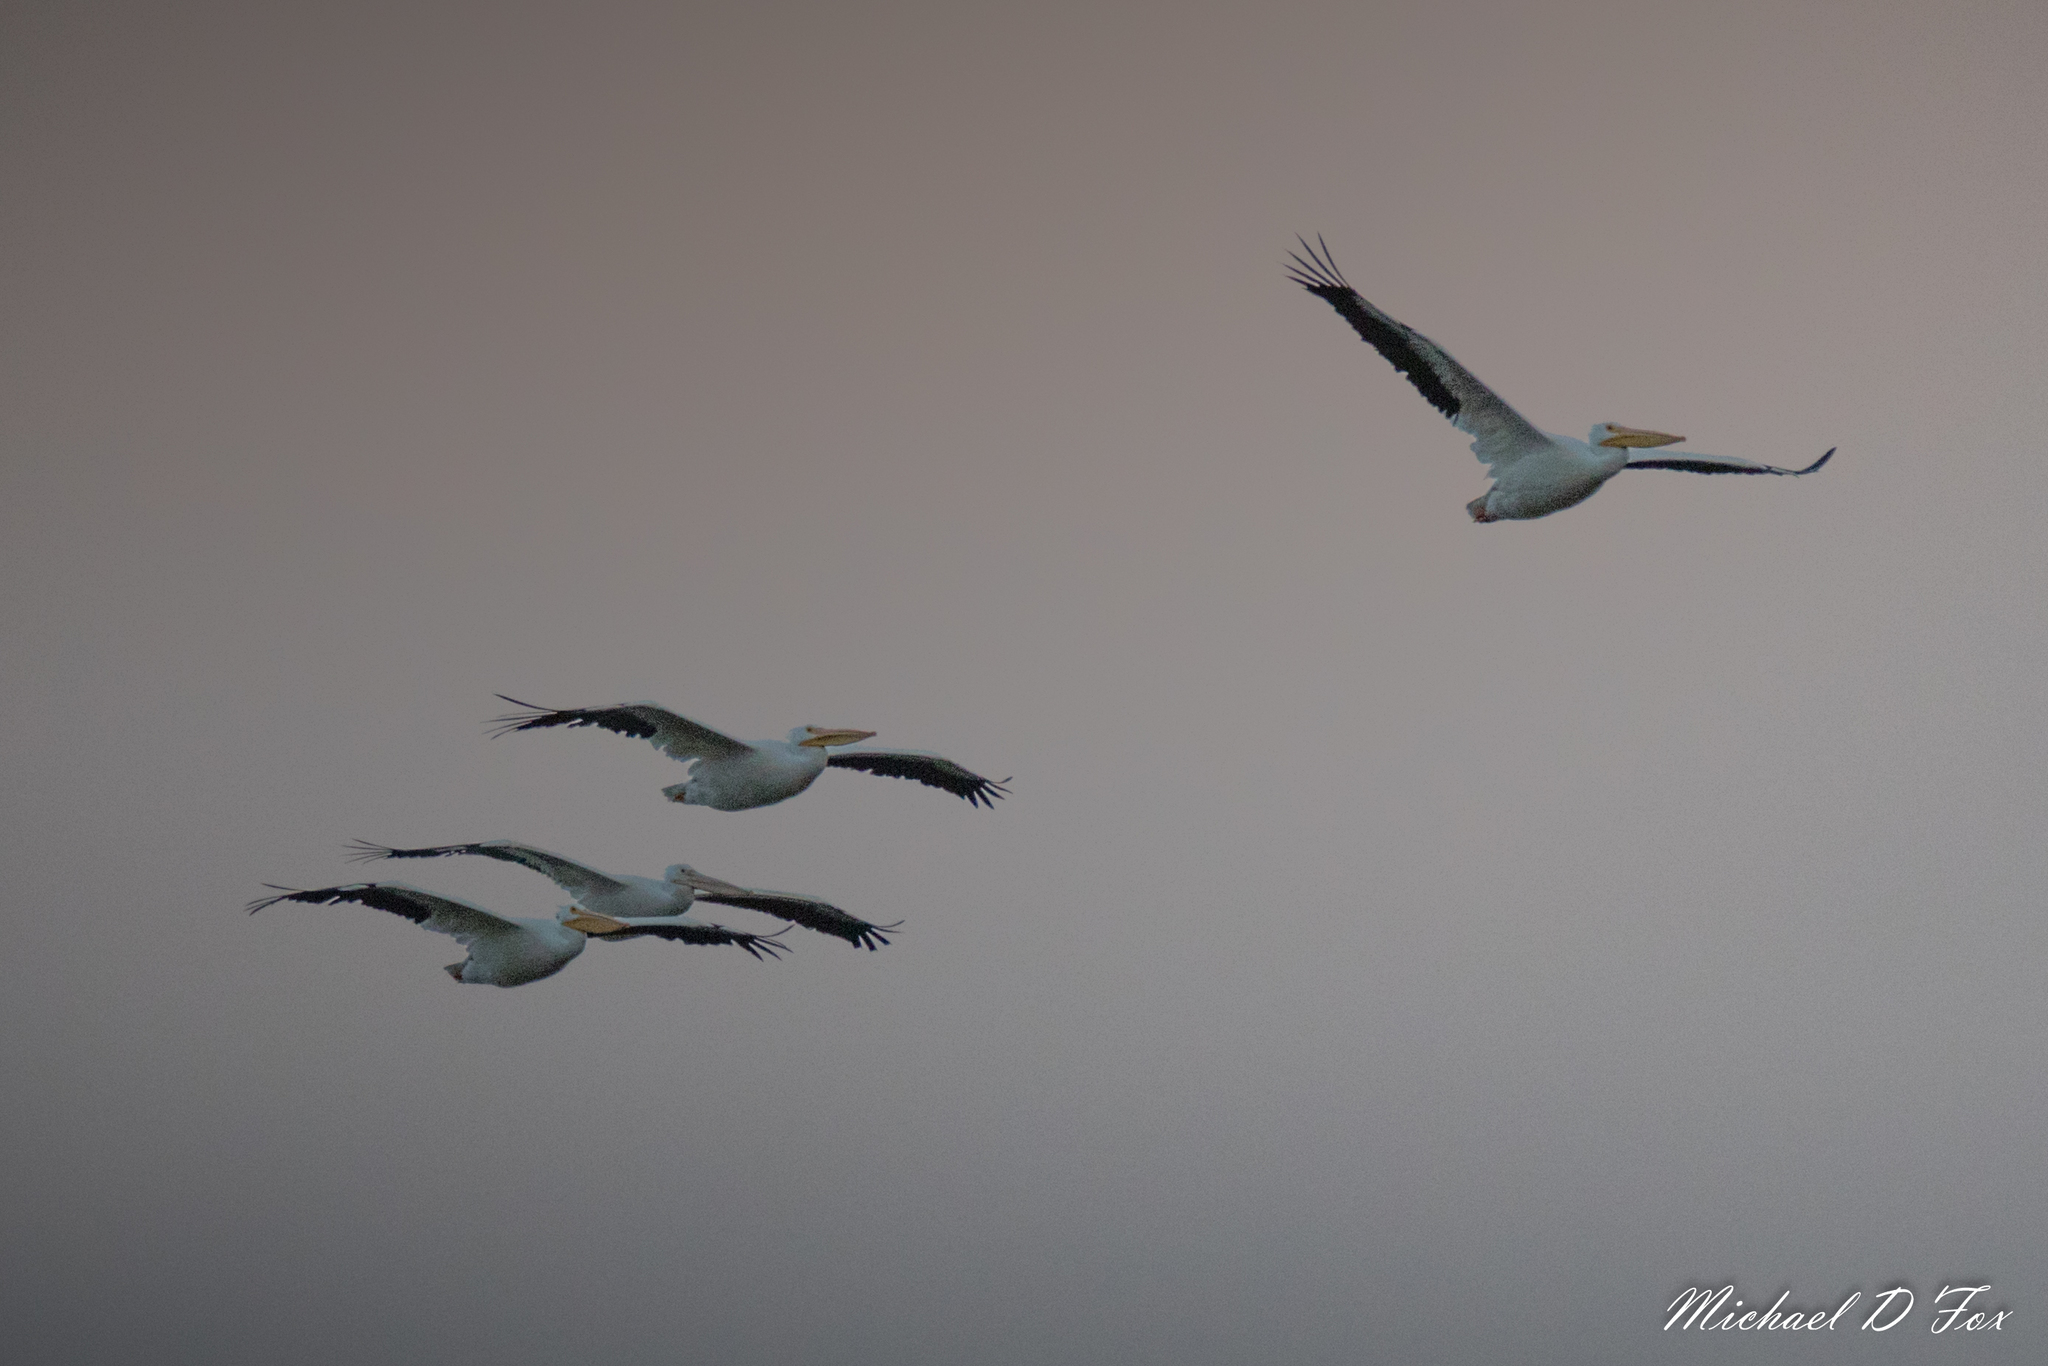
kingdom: Animalia
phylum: Chordata
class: Aves
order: Pelecaniformes
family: Pelecanidae
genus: Pelecanus
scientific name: Pelecanus erythrorhynchos
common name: American white pelican
